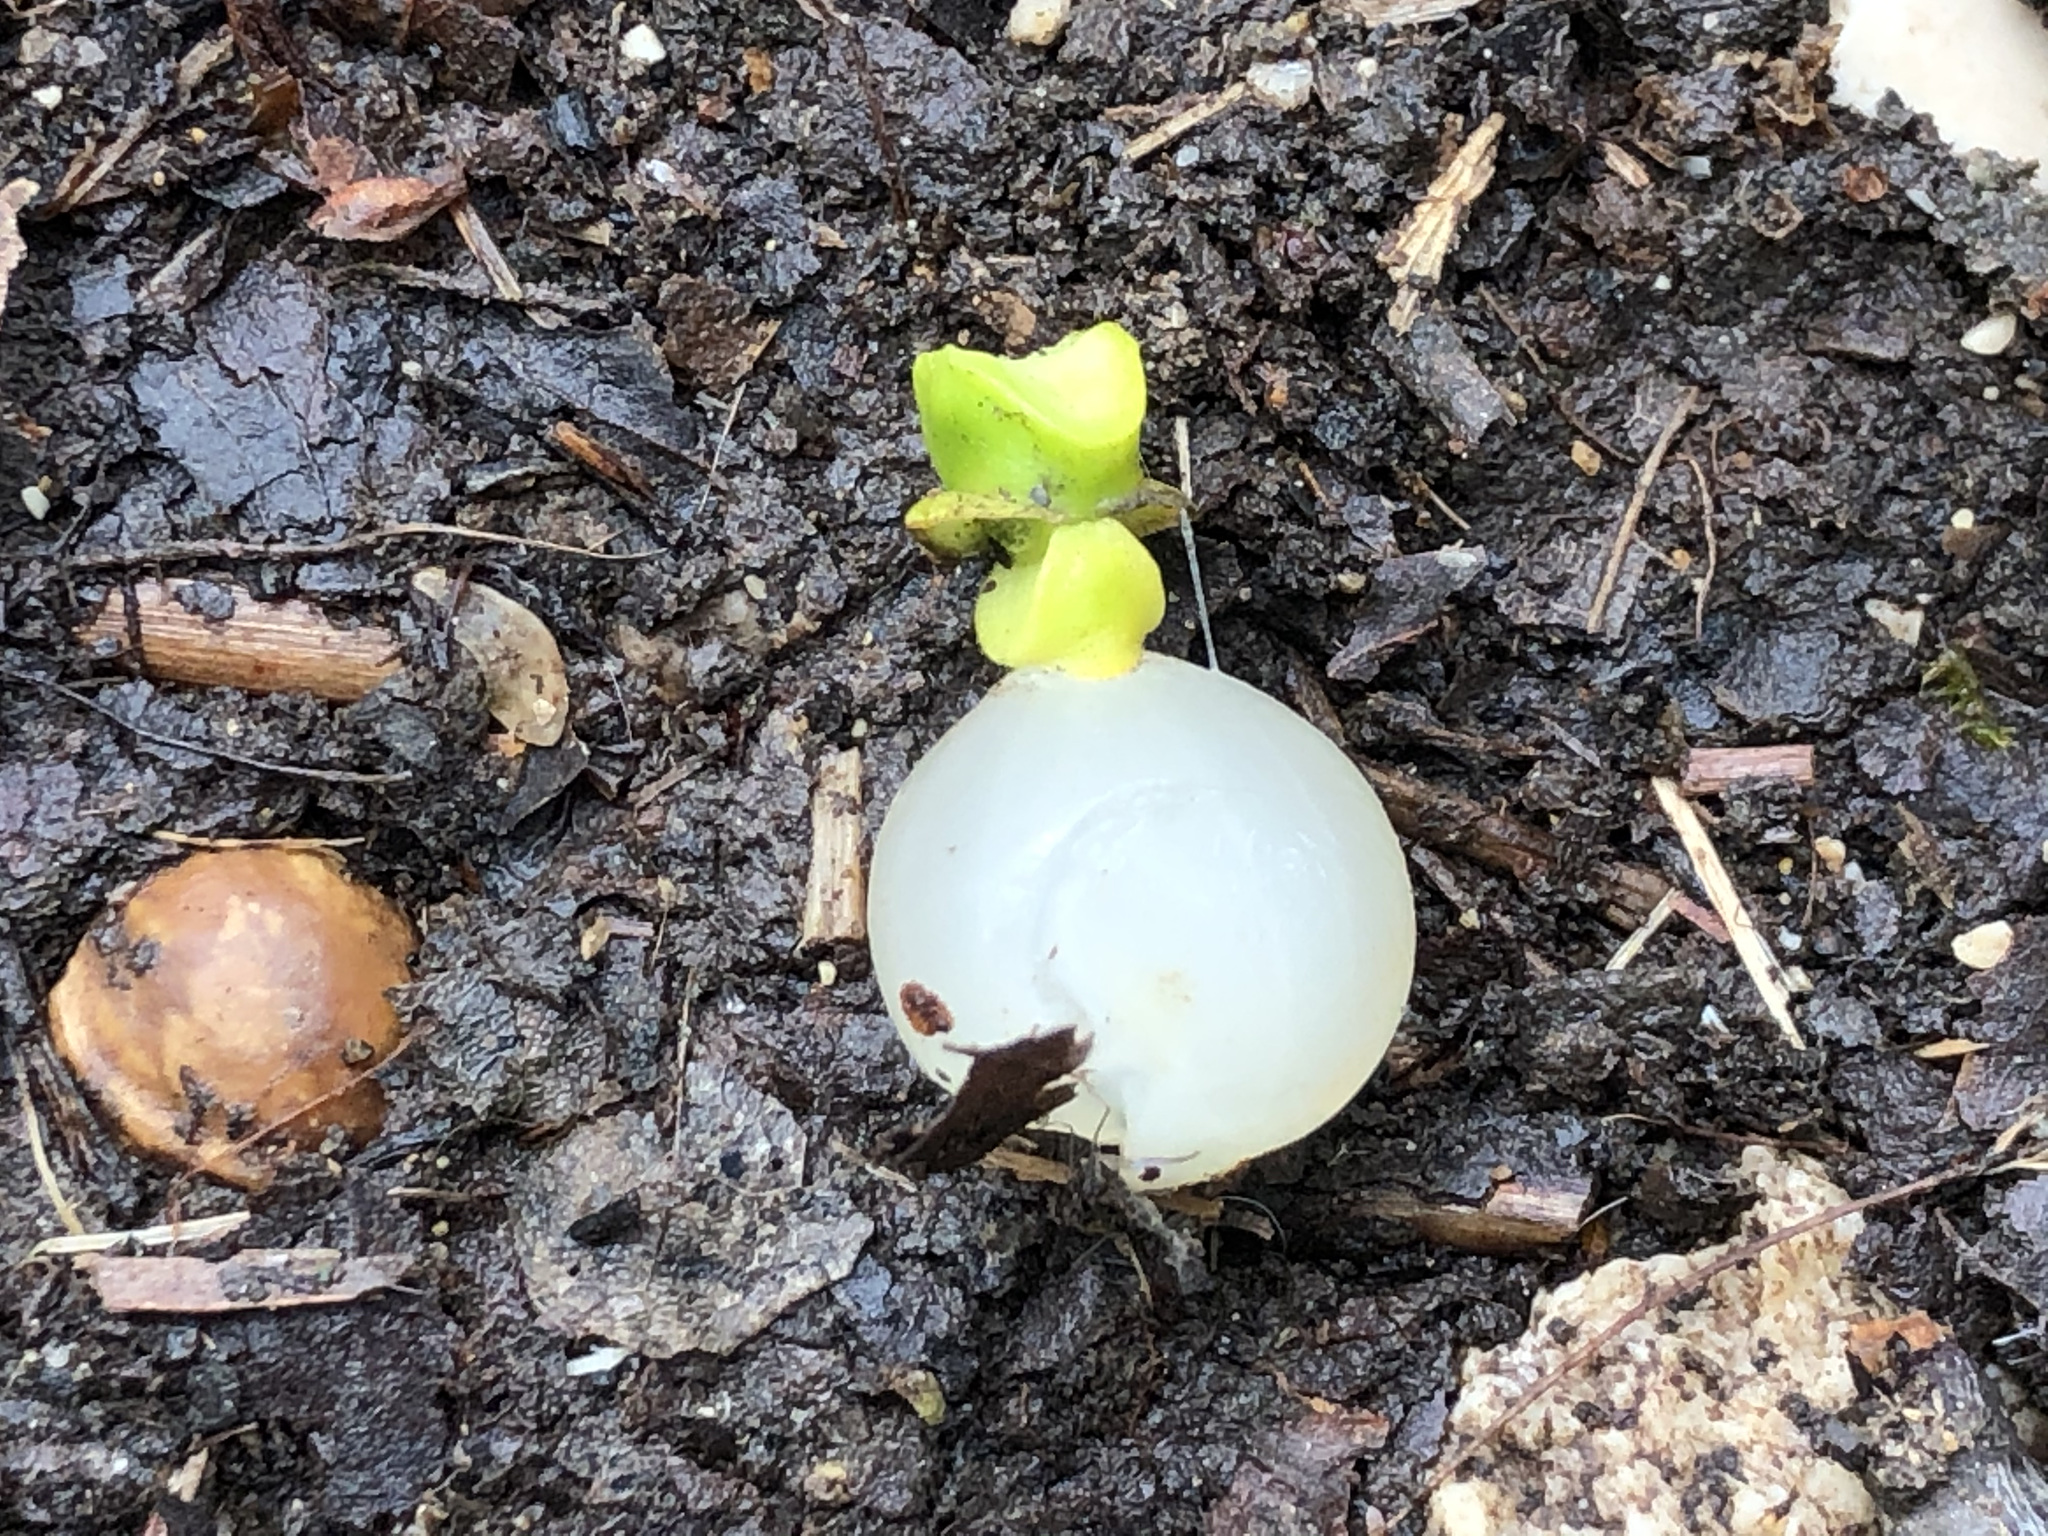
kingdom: Plantae
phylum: Tracheophyta
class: Magnoliopsida
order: Santalales
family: Viscaceae
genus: Viscum
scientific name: Viscum album
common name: Mistletoe
